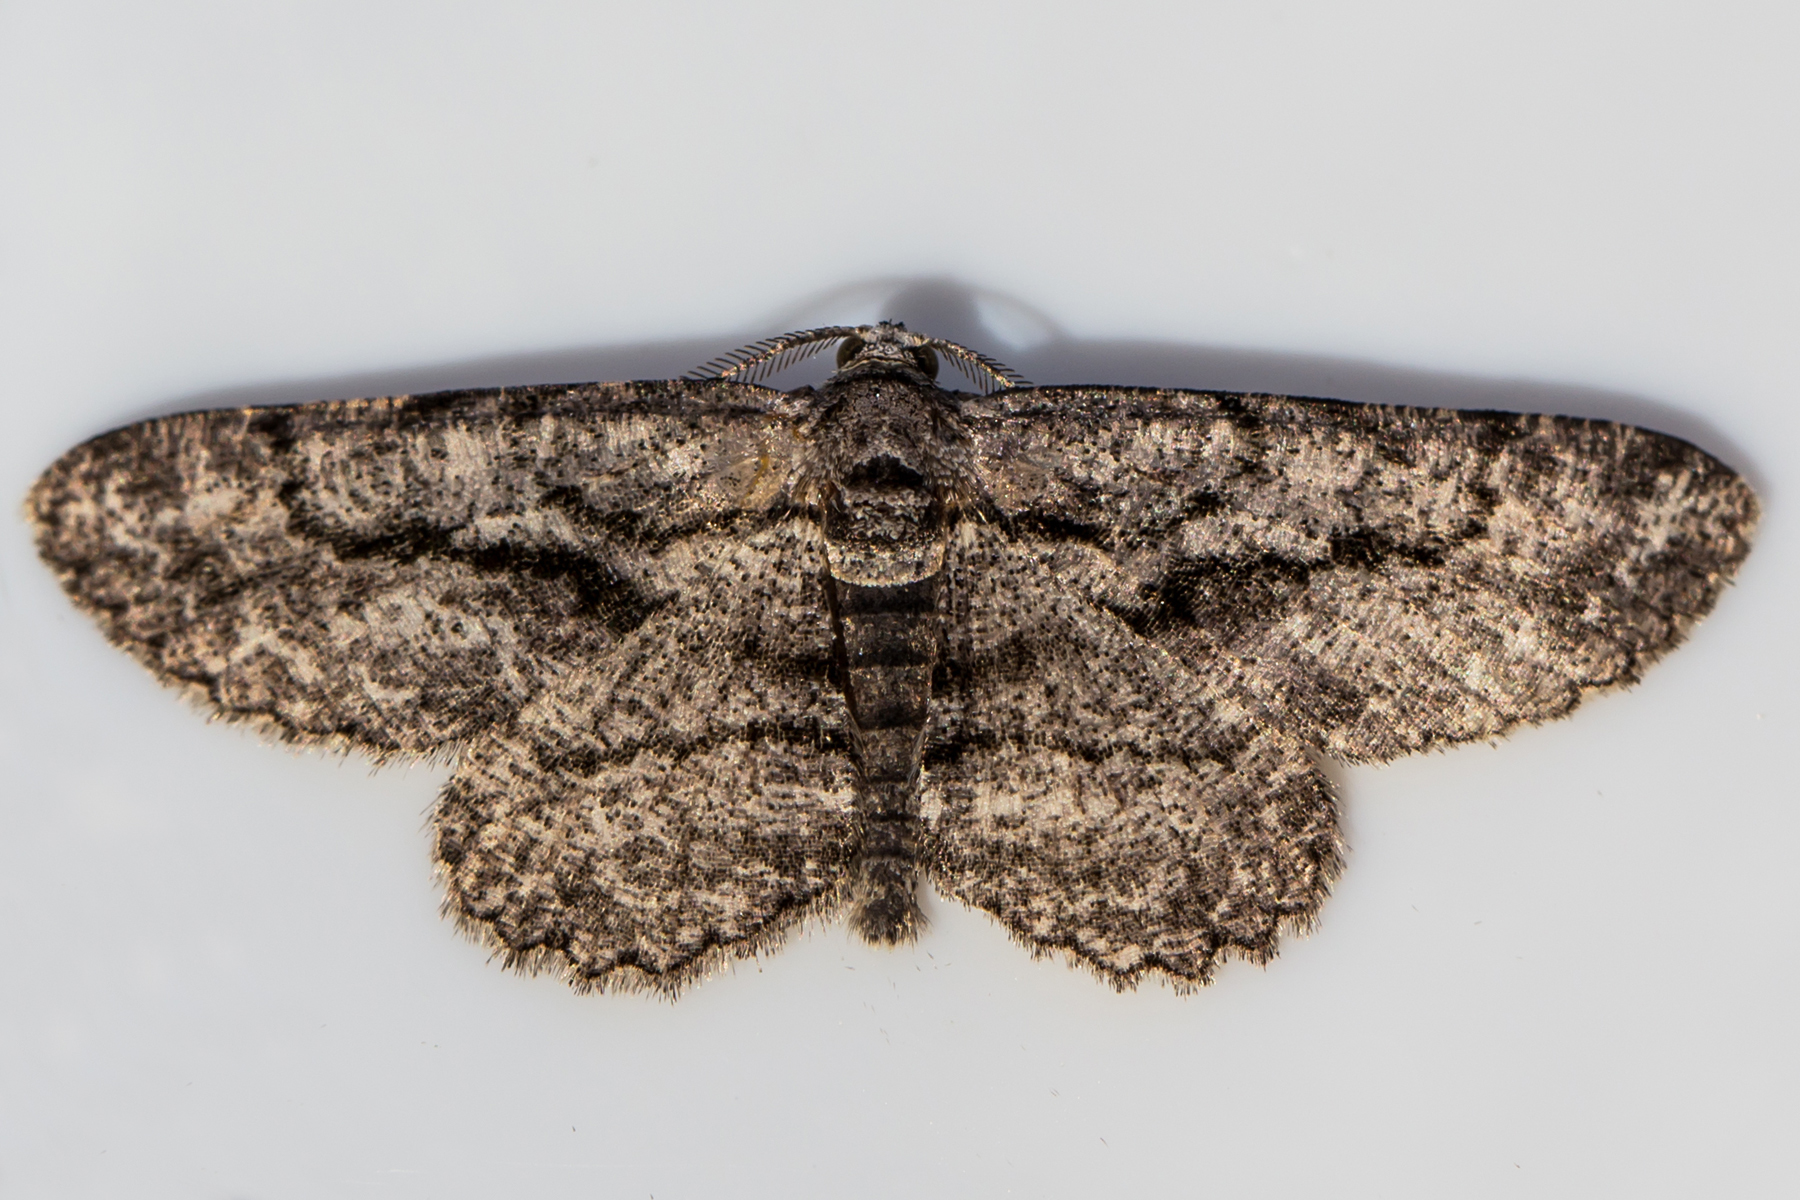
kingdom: Animalia
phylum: Arthropoda
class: Insecta
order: Lepidoptera
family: Geometridae
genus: Anavitrinella
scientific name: Anavitrinella pampinaria
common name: Common gray
